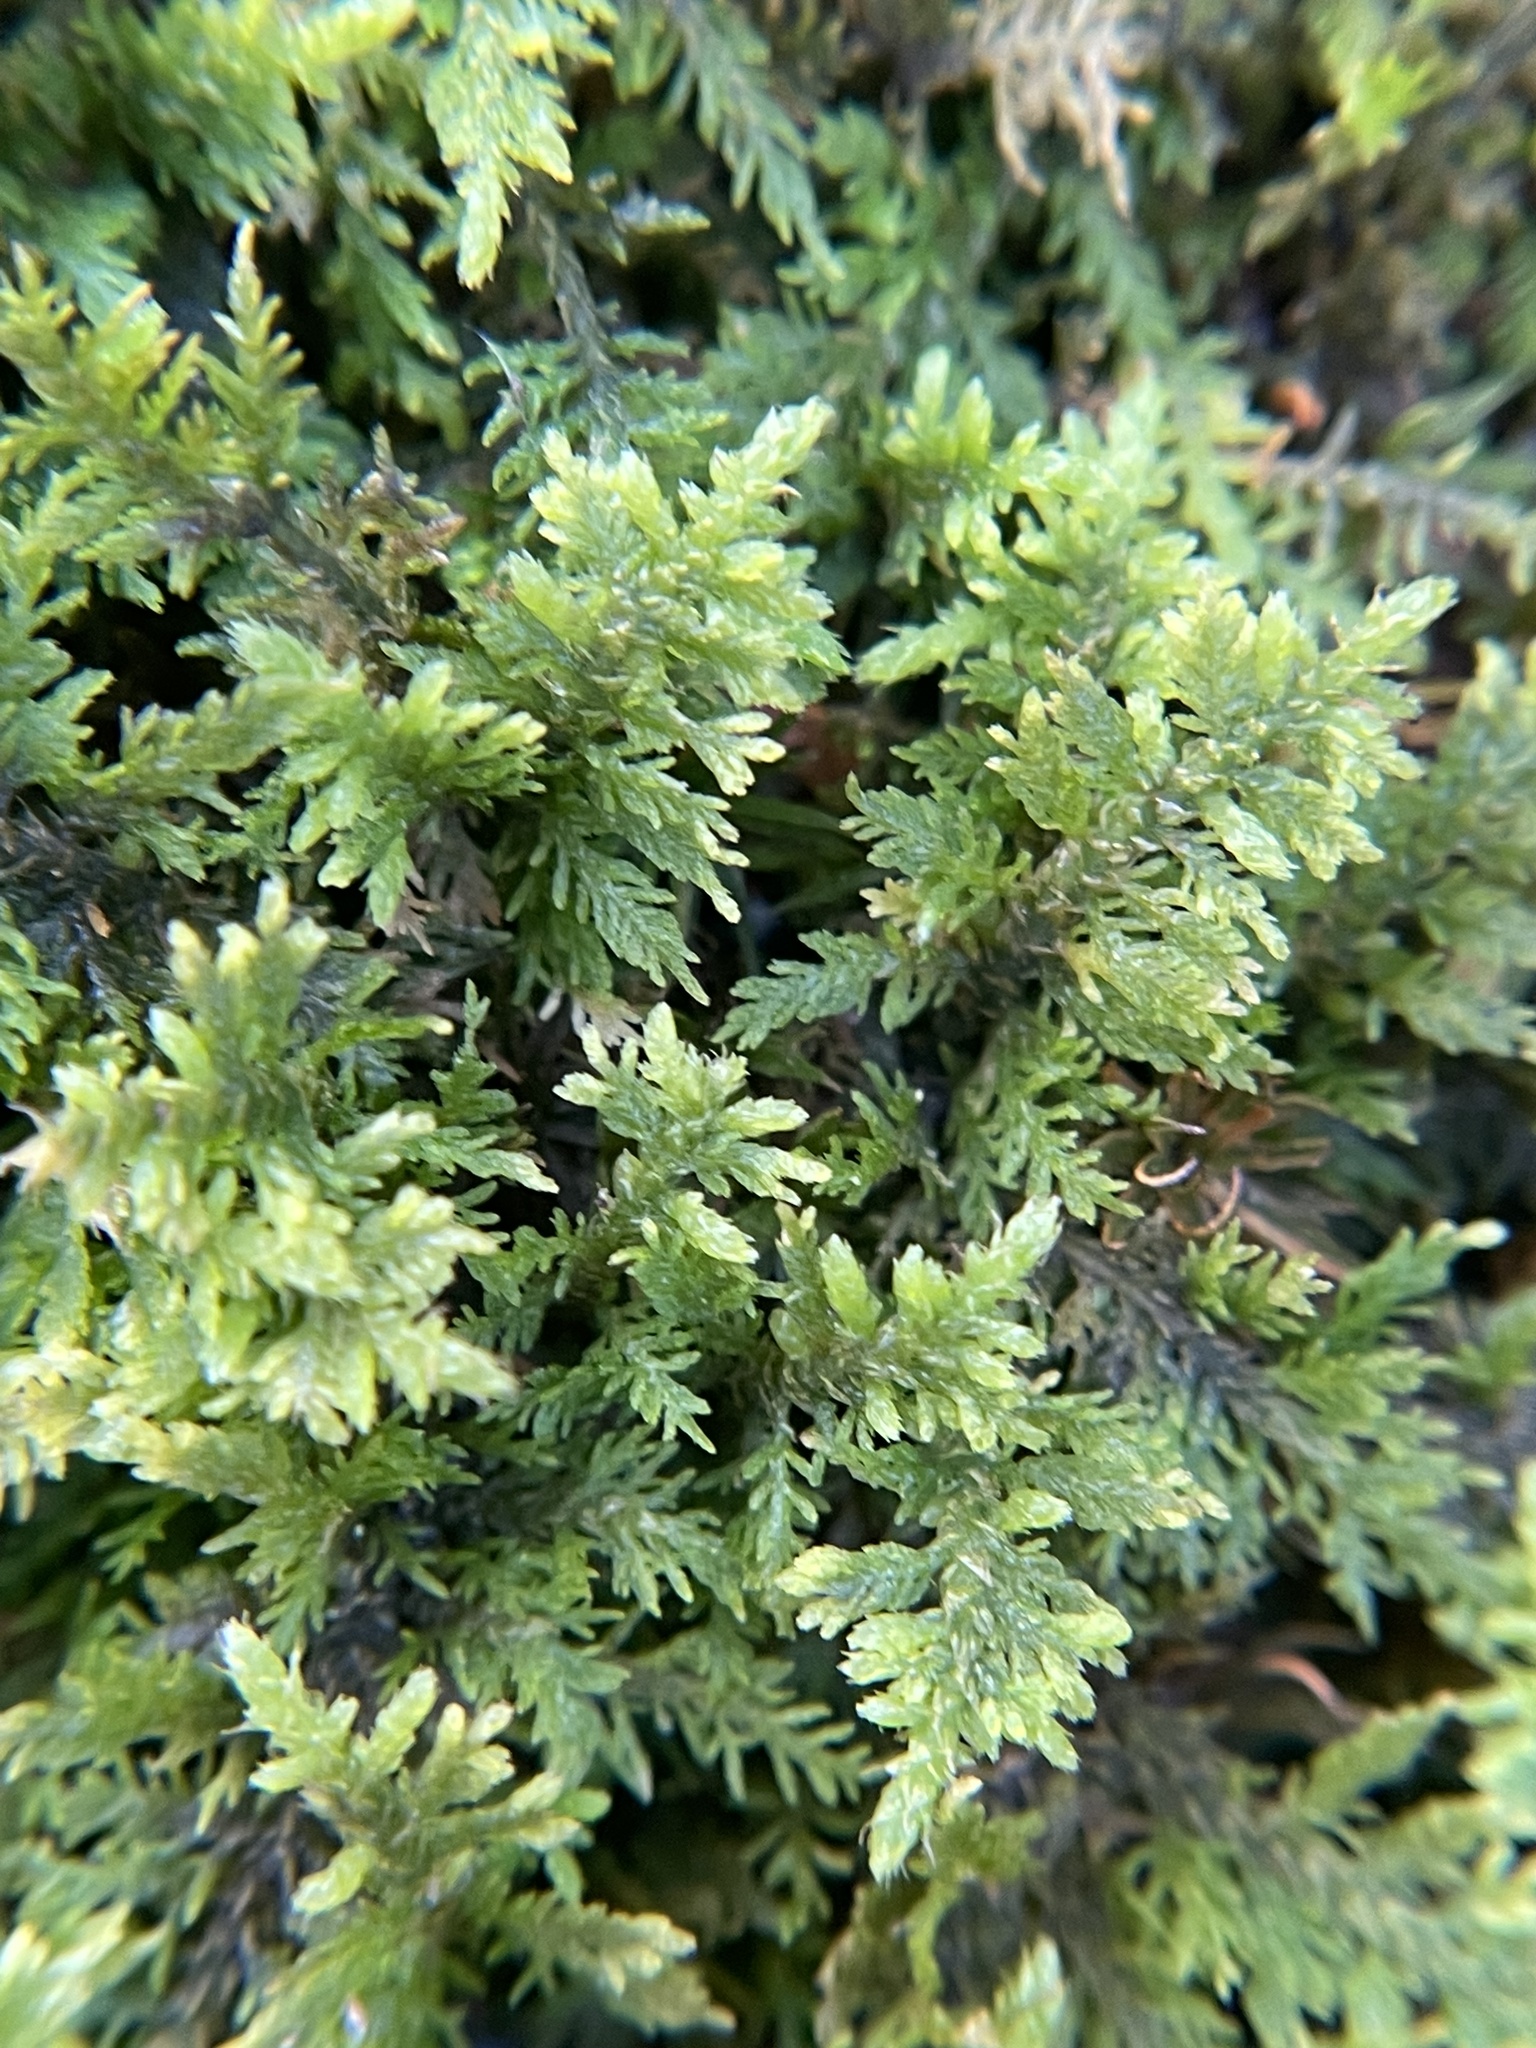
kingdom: Plantae
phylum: Bryophyta
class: Bryopsida
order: Hypnales
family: Thuidiaceae
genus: Thuidium
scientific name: Thuidium delicatulum
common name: Delicate fern moss
